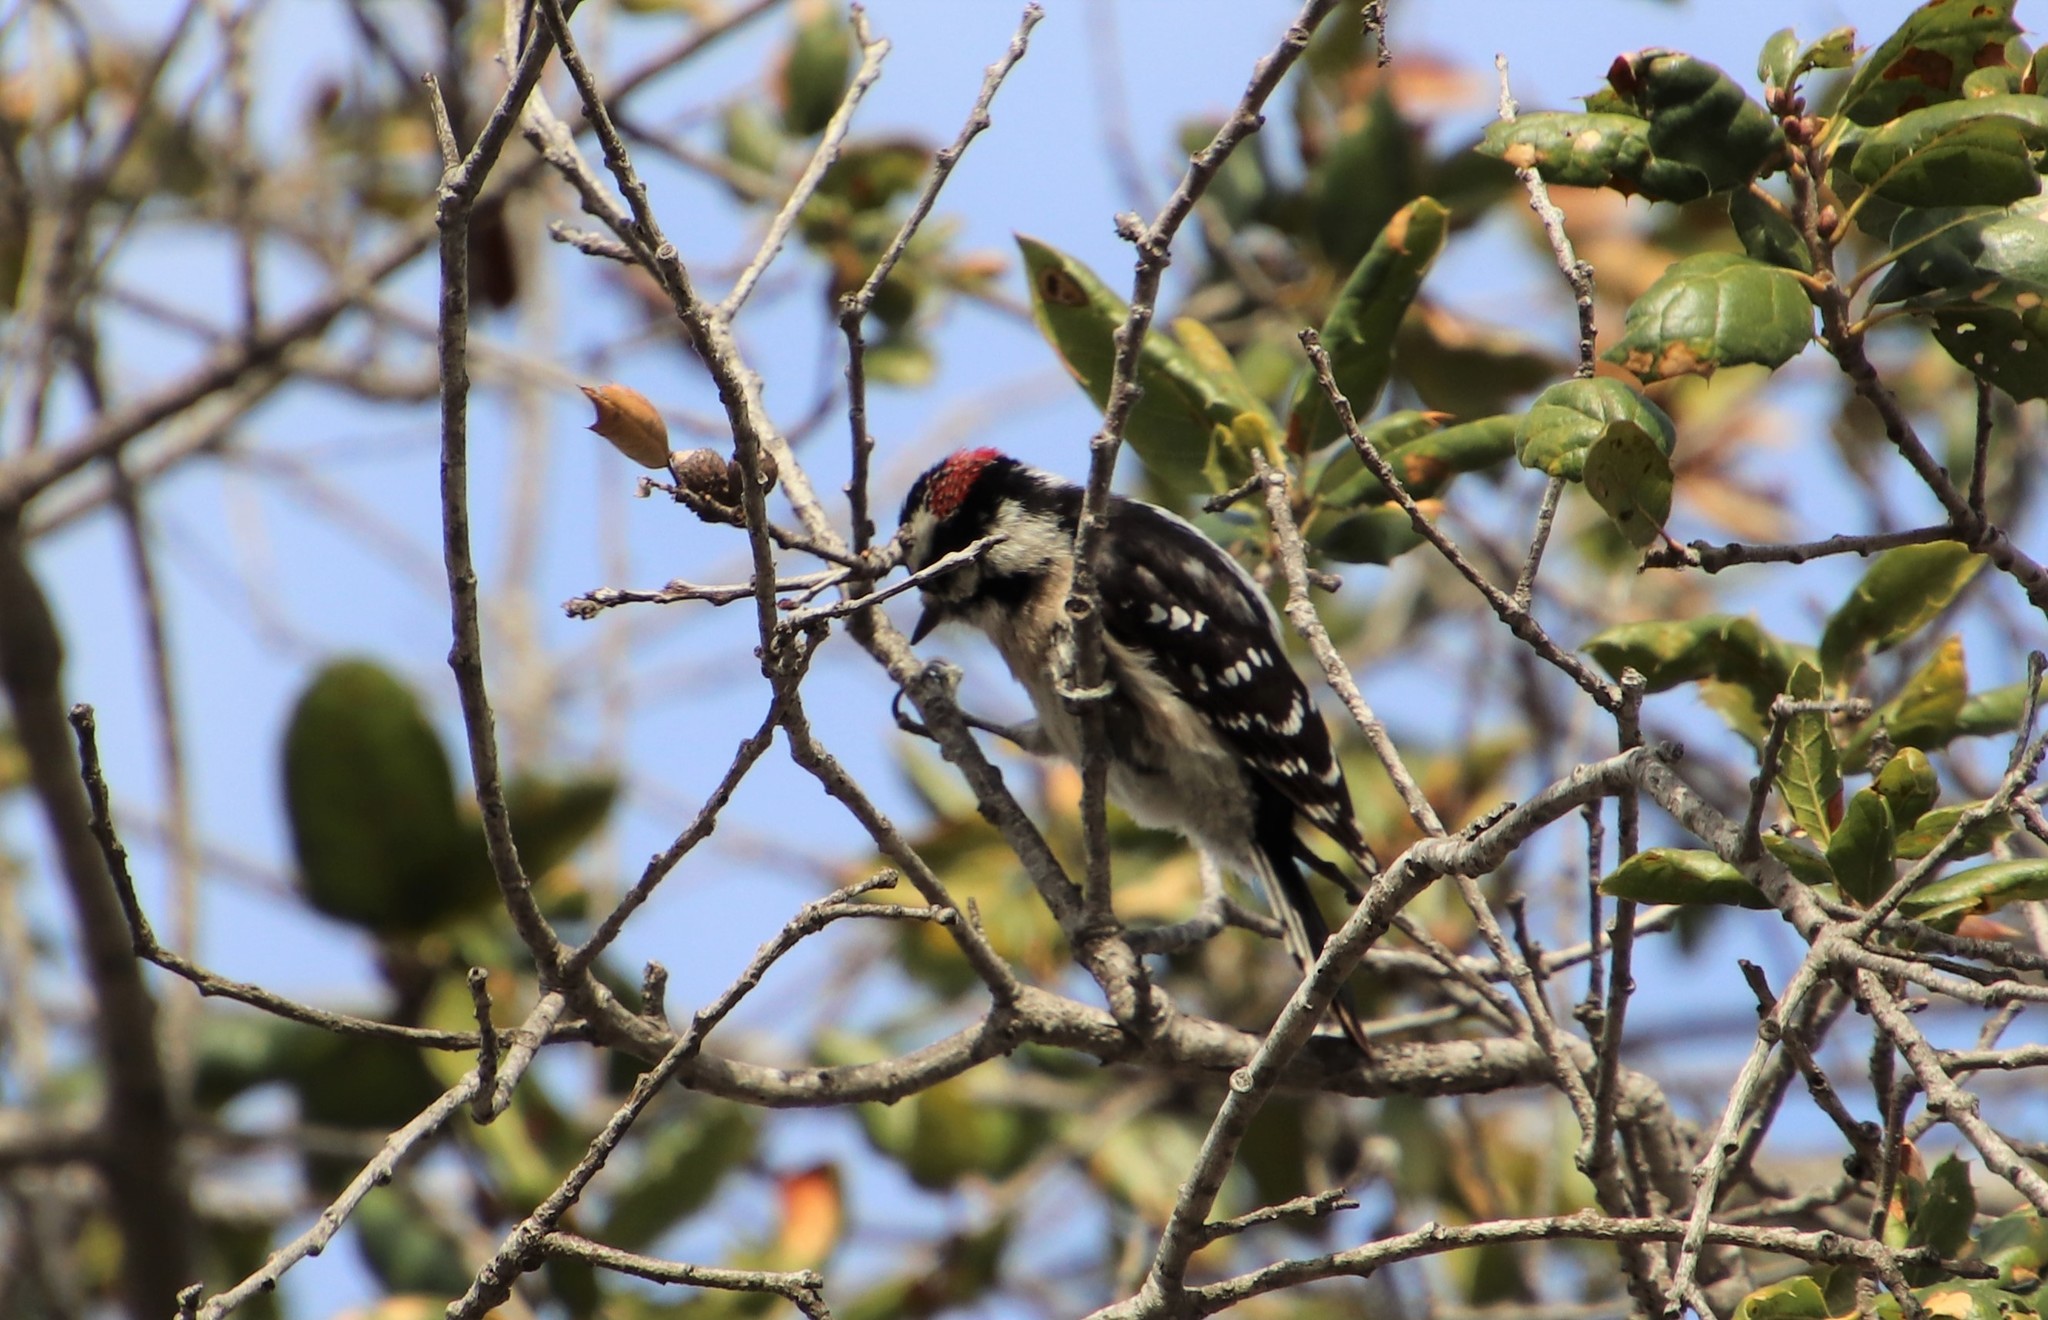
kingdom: Animalia
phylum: Chordata
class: Aves
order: Piciformes
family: Picidae
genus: Dryobates
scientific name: Dryobates pubescens
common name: Downy woodpecker
